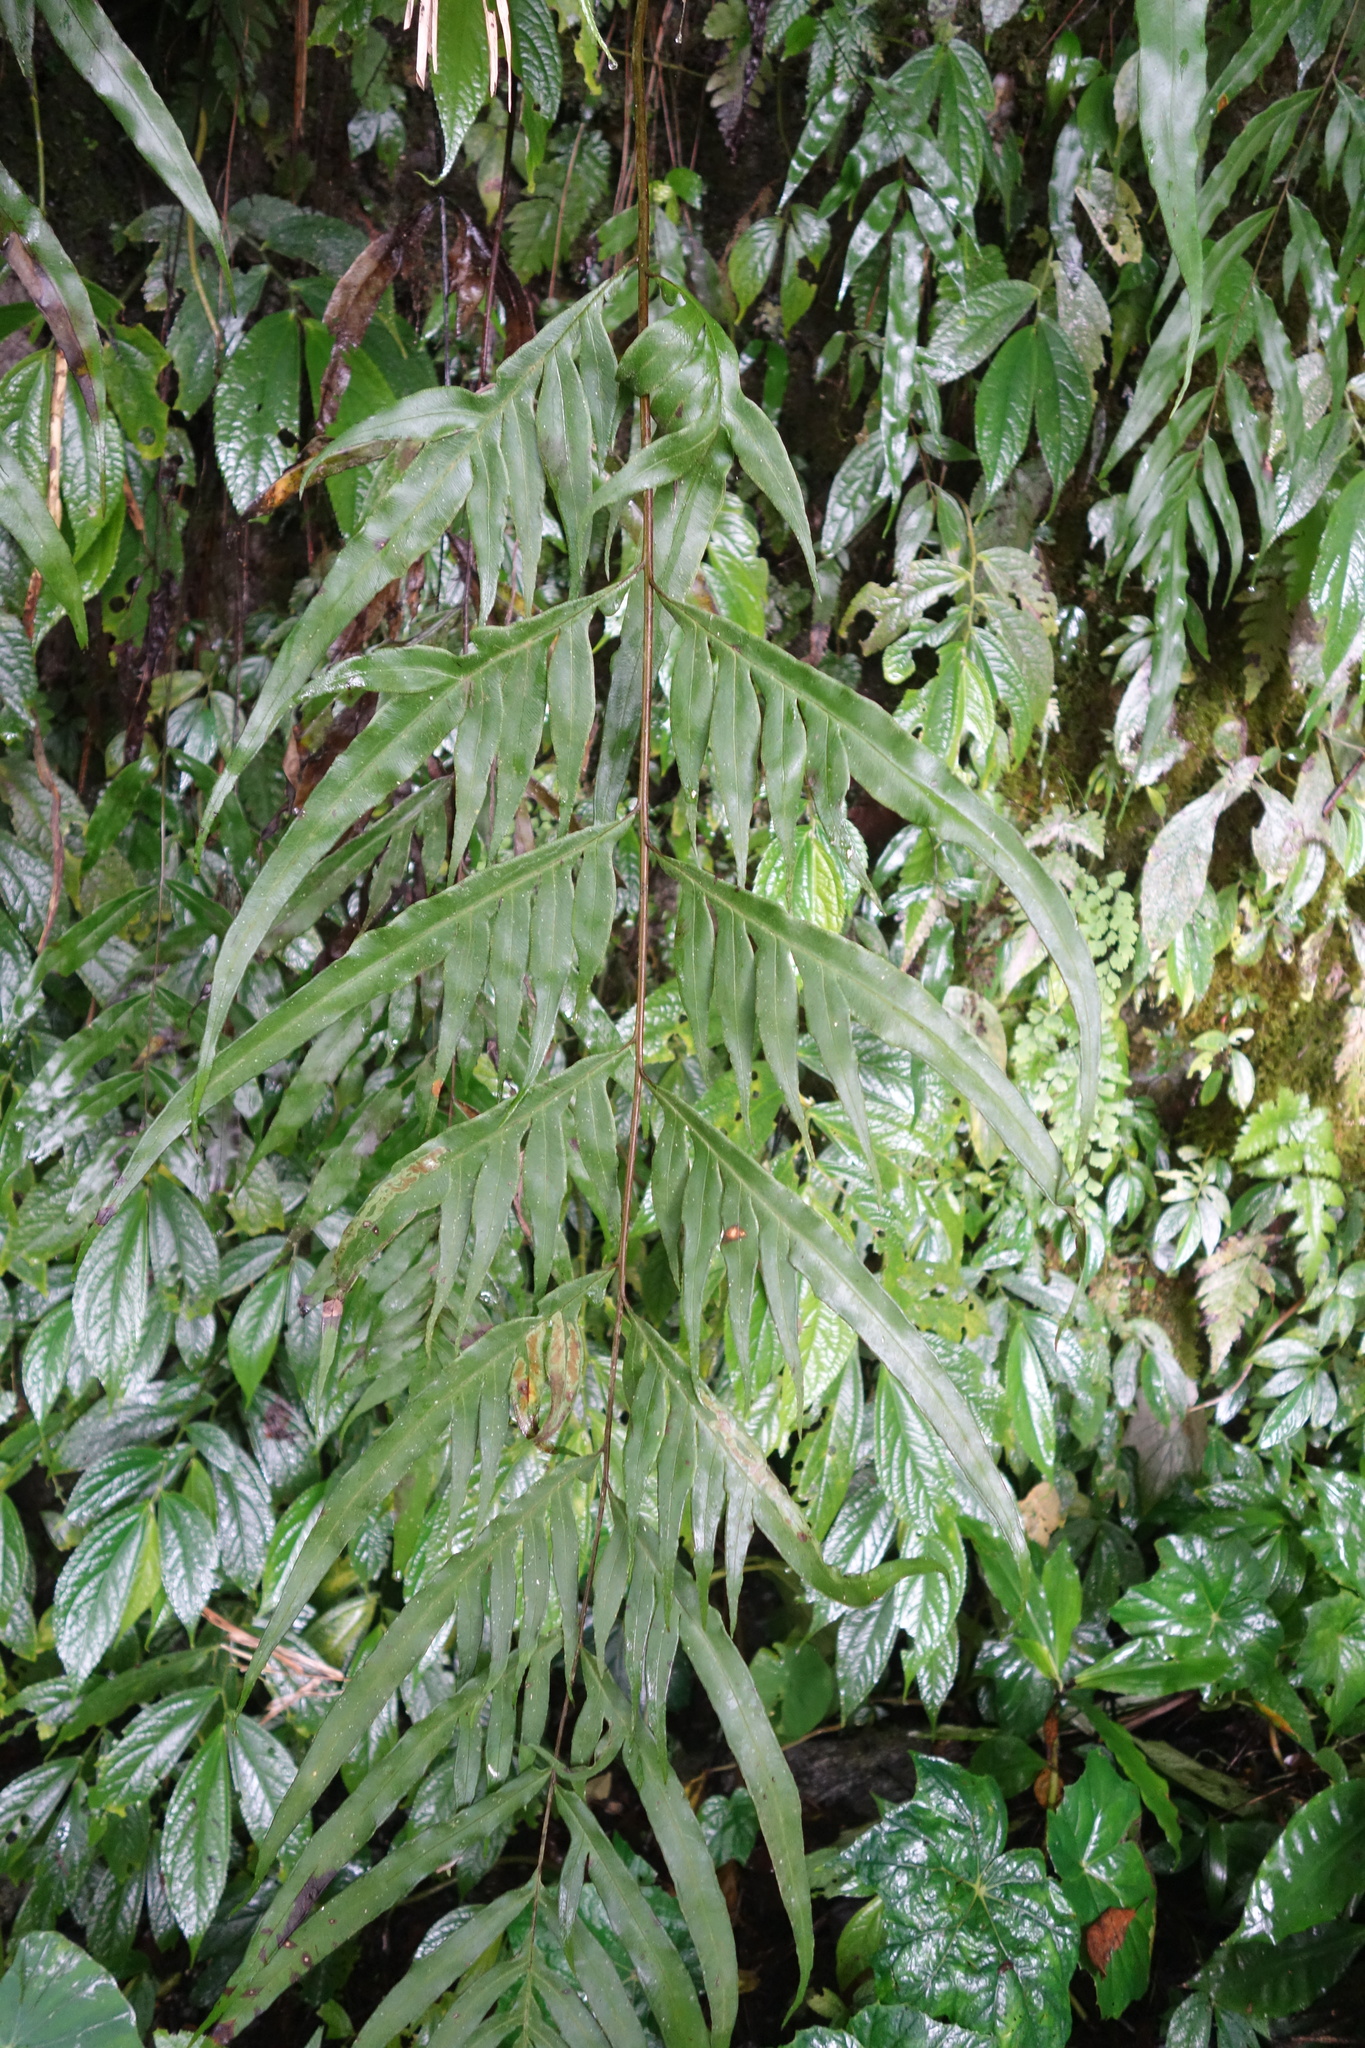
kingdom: Plantae
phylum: Tracheophyta
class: Polypodiopsida
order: Polypodiales
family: Pteridaceae
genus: Pteris
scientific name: Pteris formosana
